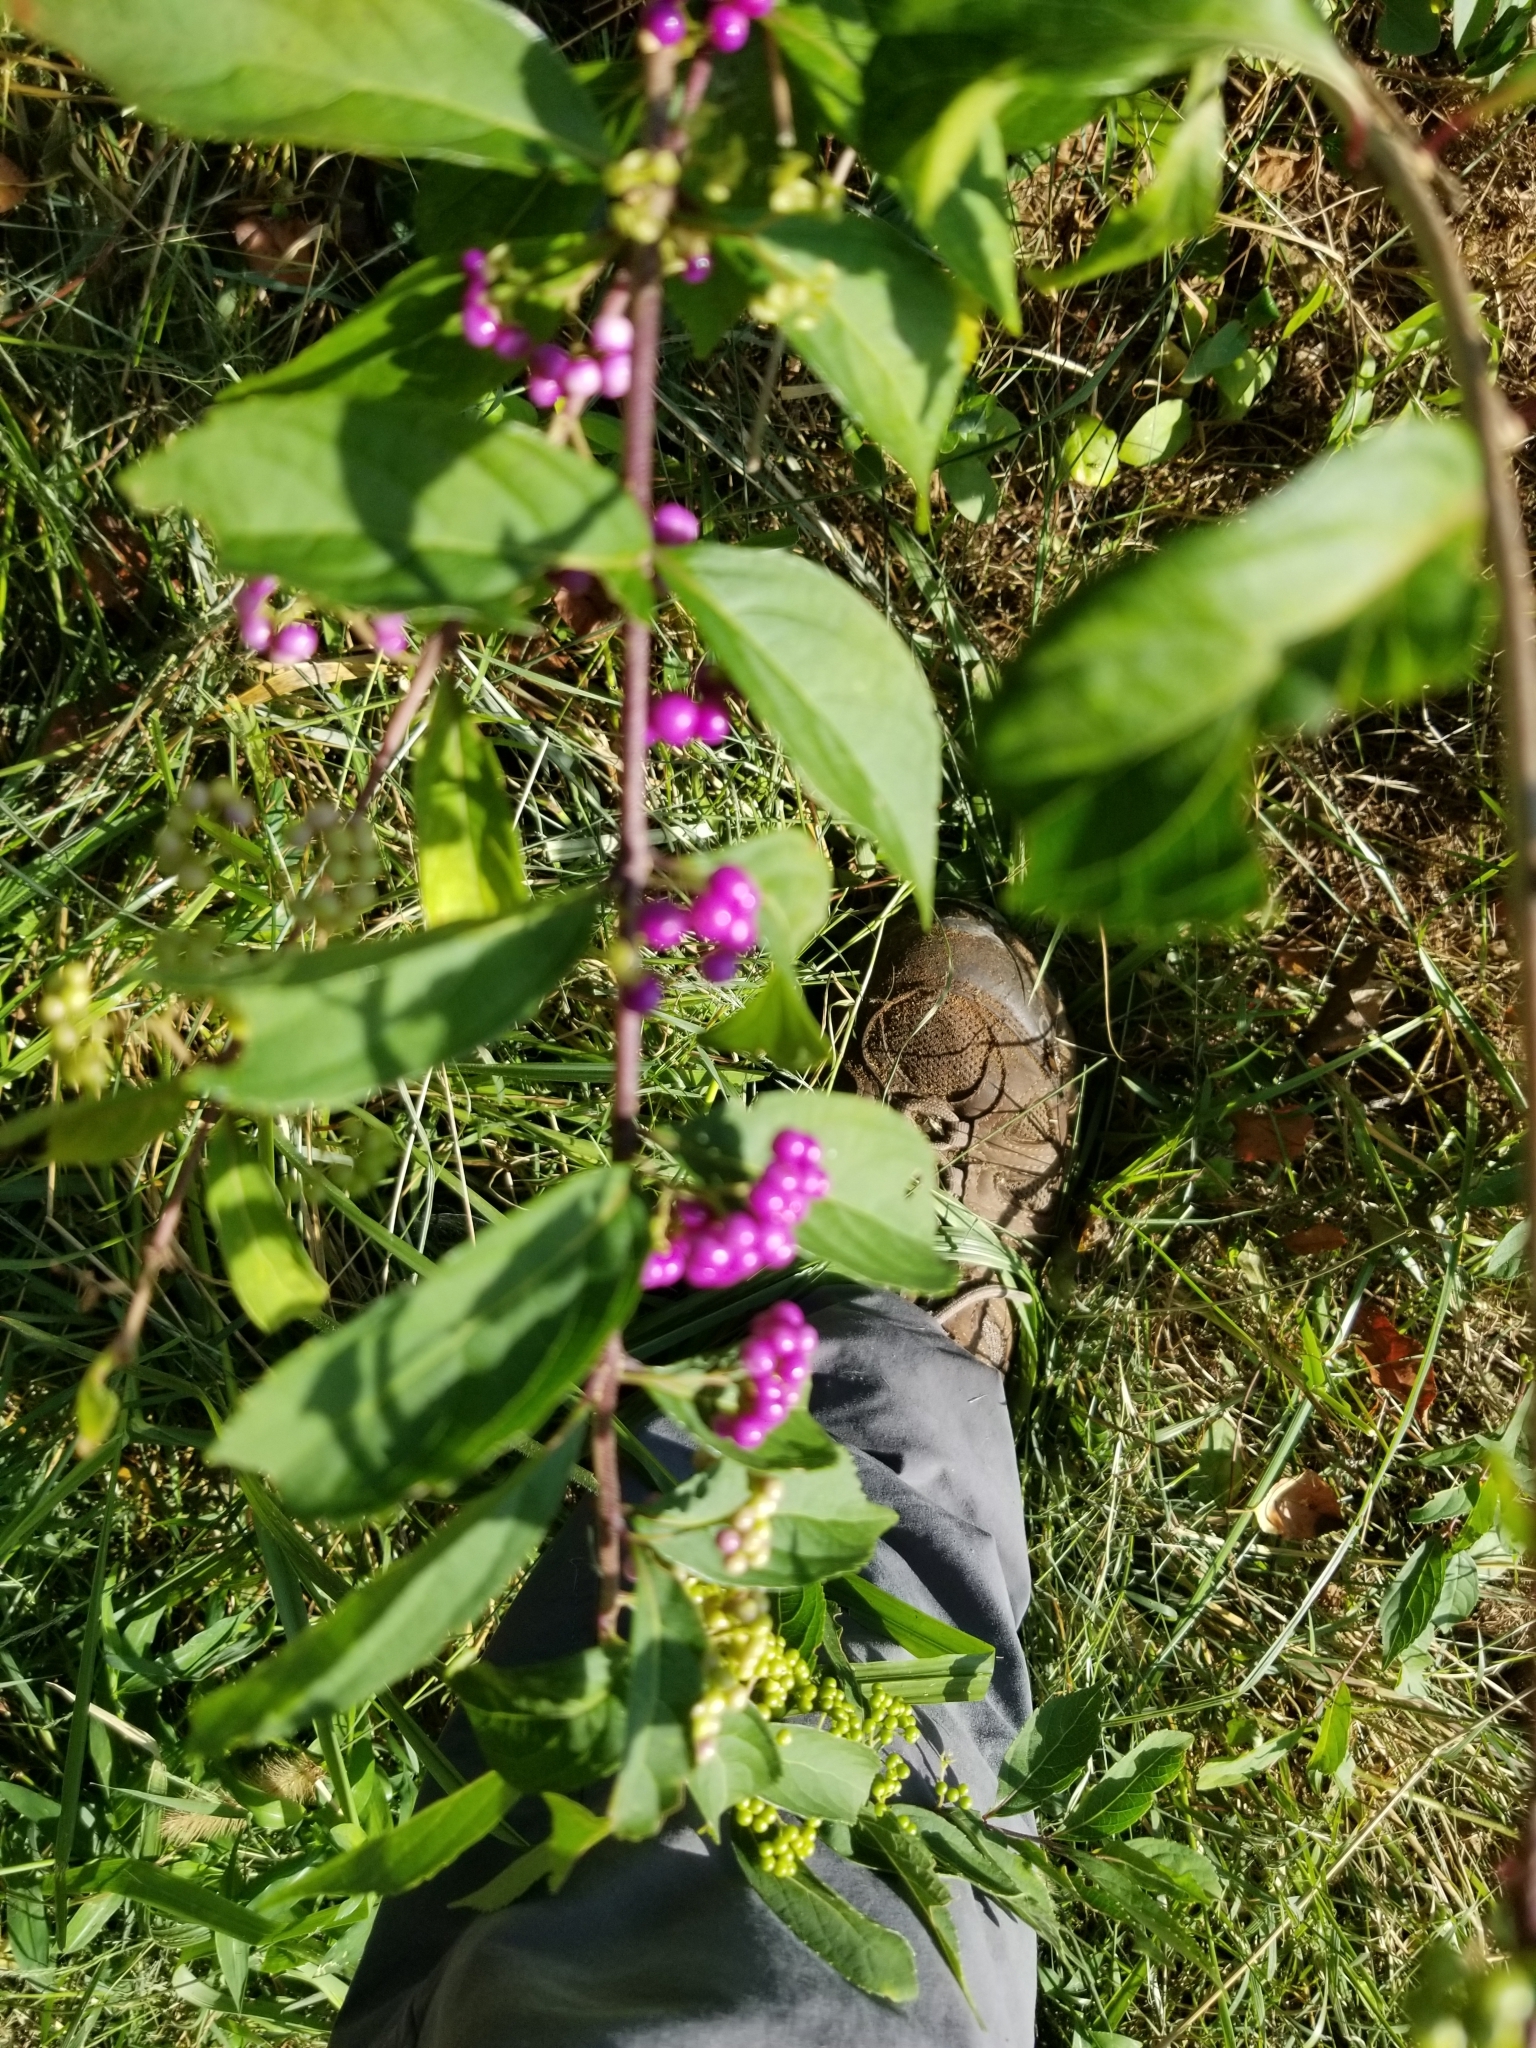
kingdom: Plantae
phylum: Tracheophyta
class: Magnoliopsida
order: Lamiales
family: Lamiaceae
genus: Callicarpa
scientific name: Callicarpa dichotoma
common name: Purple beauty-berry
